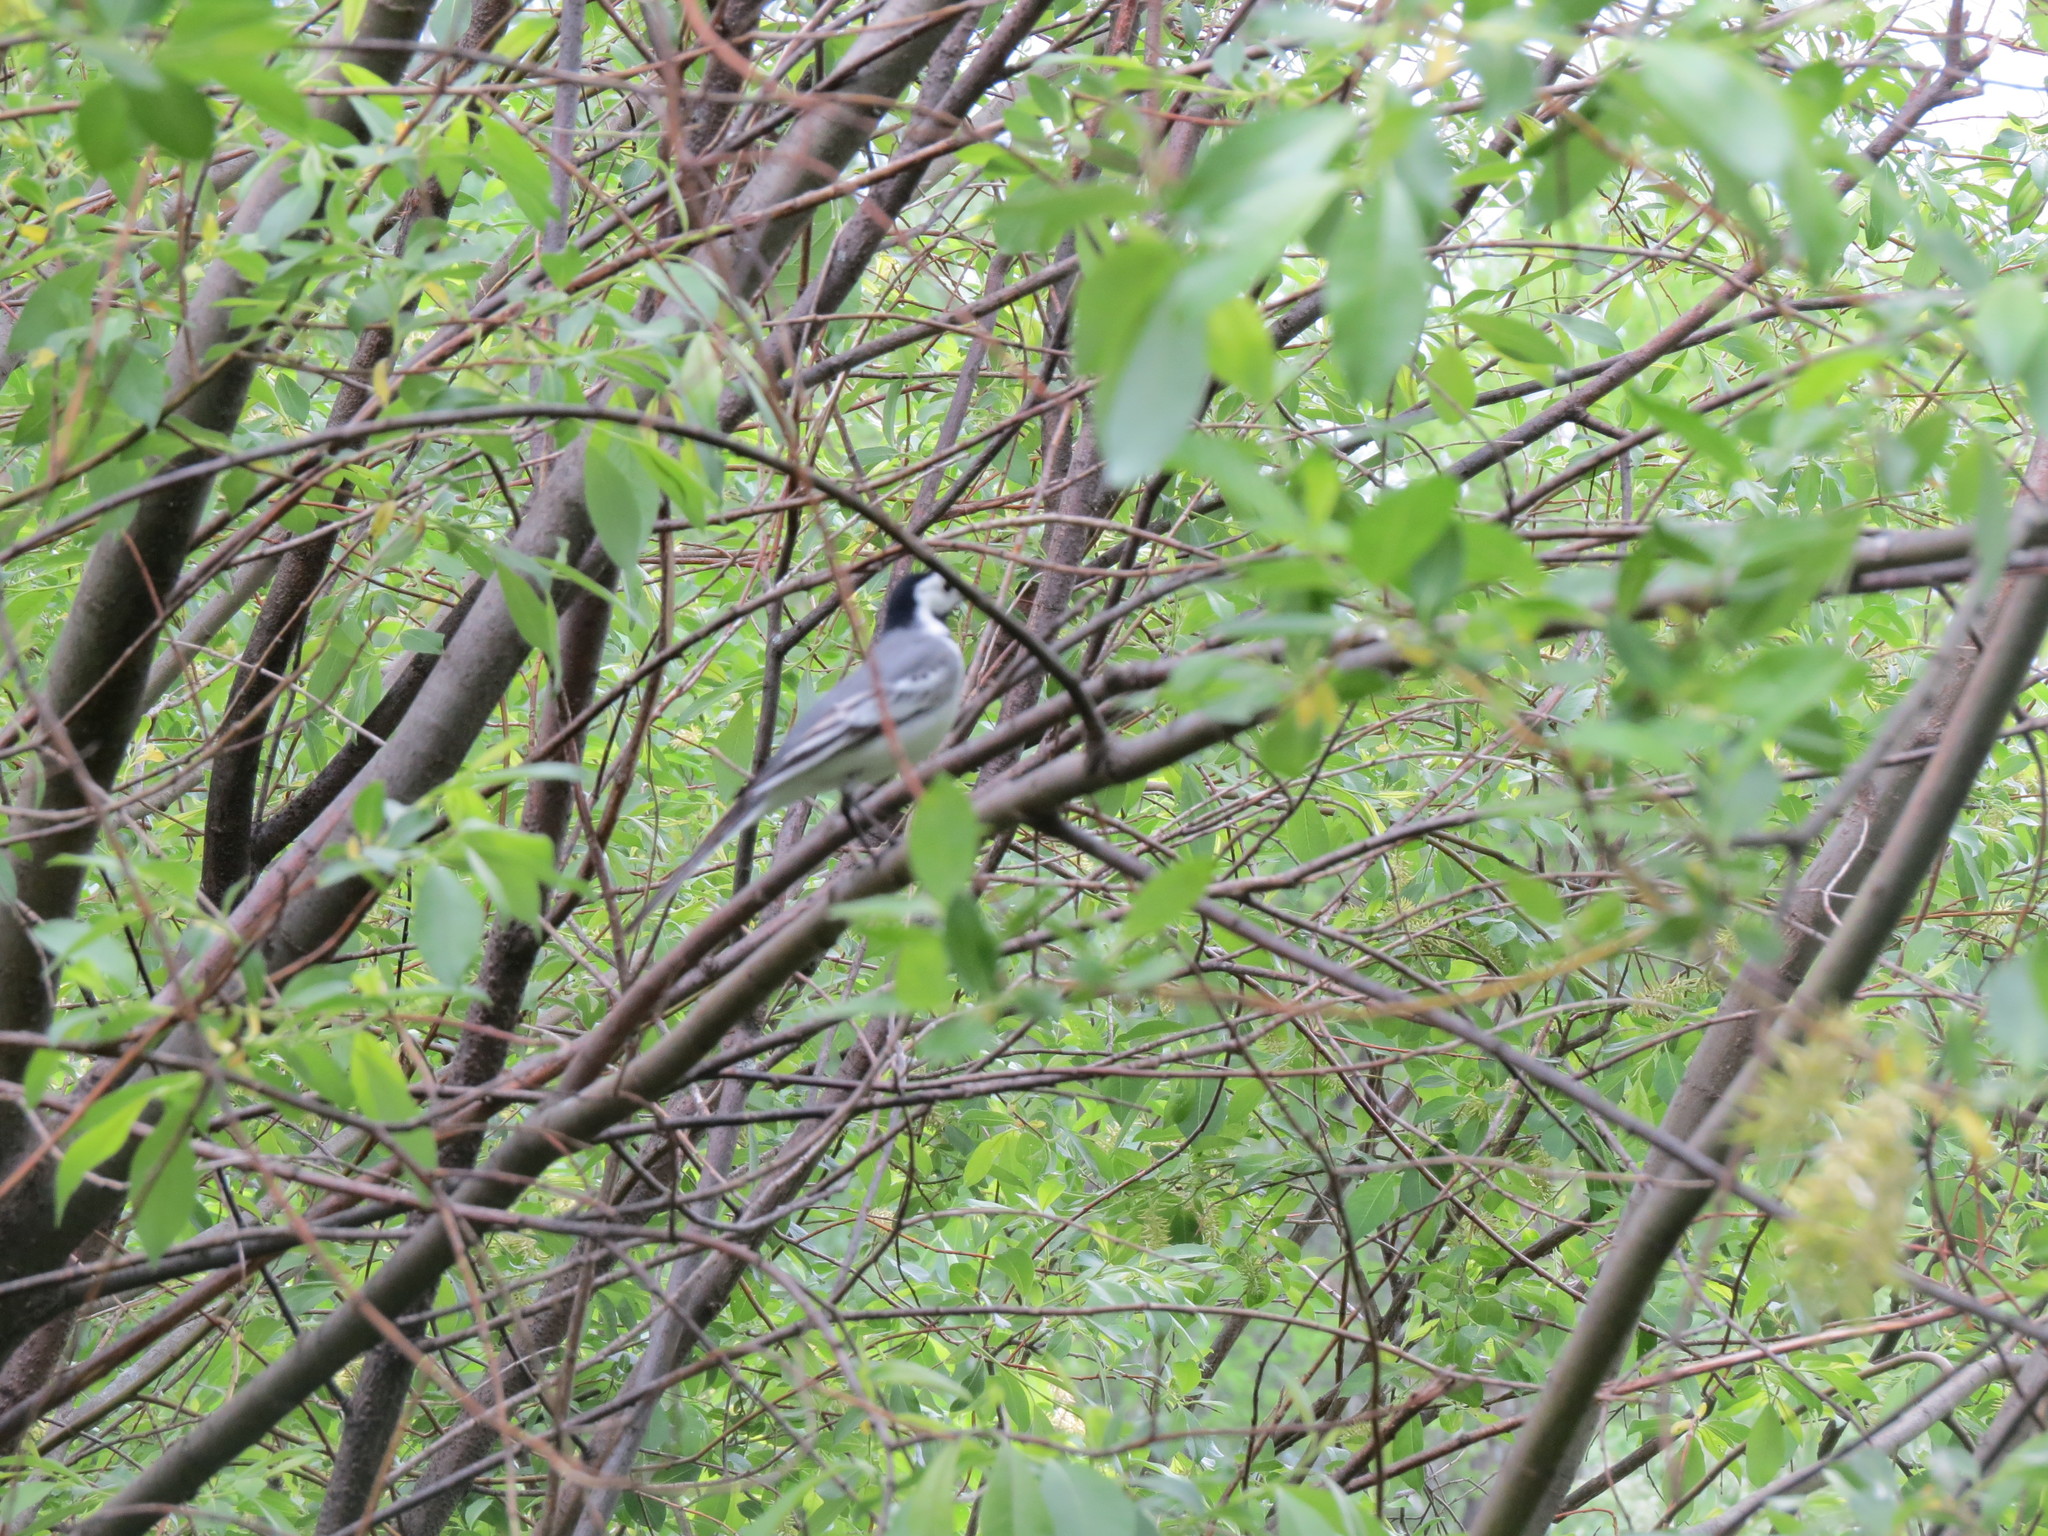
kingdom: Animalia
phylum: Chordata
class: Aves
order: Passeriformes
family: Motacillidae
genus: Motacilla
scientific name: Motacilla alba
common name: White wagtail
